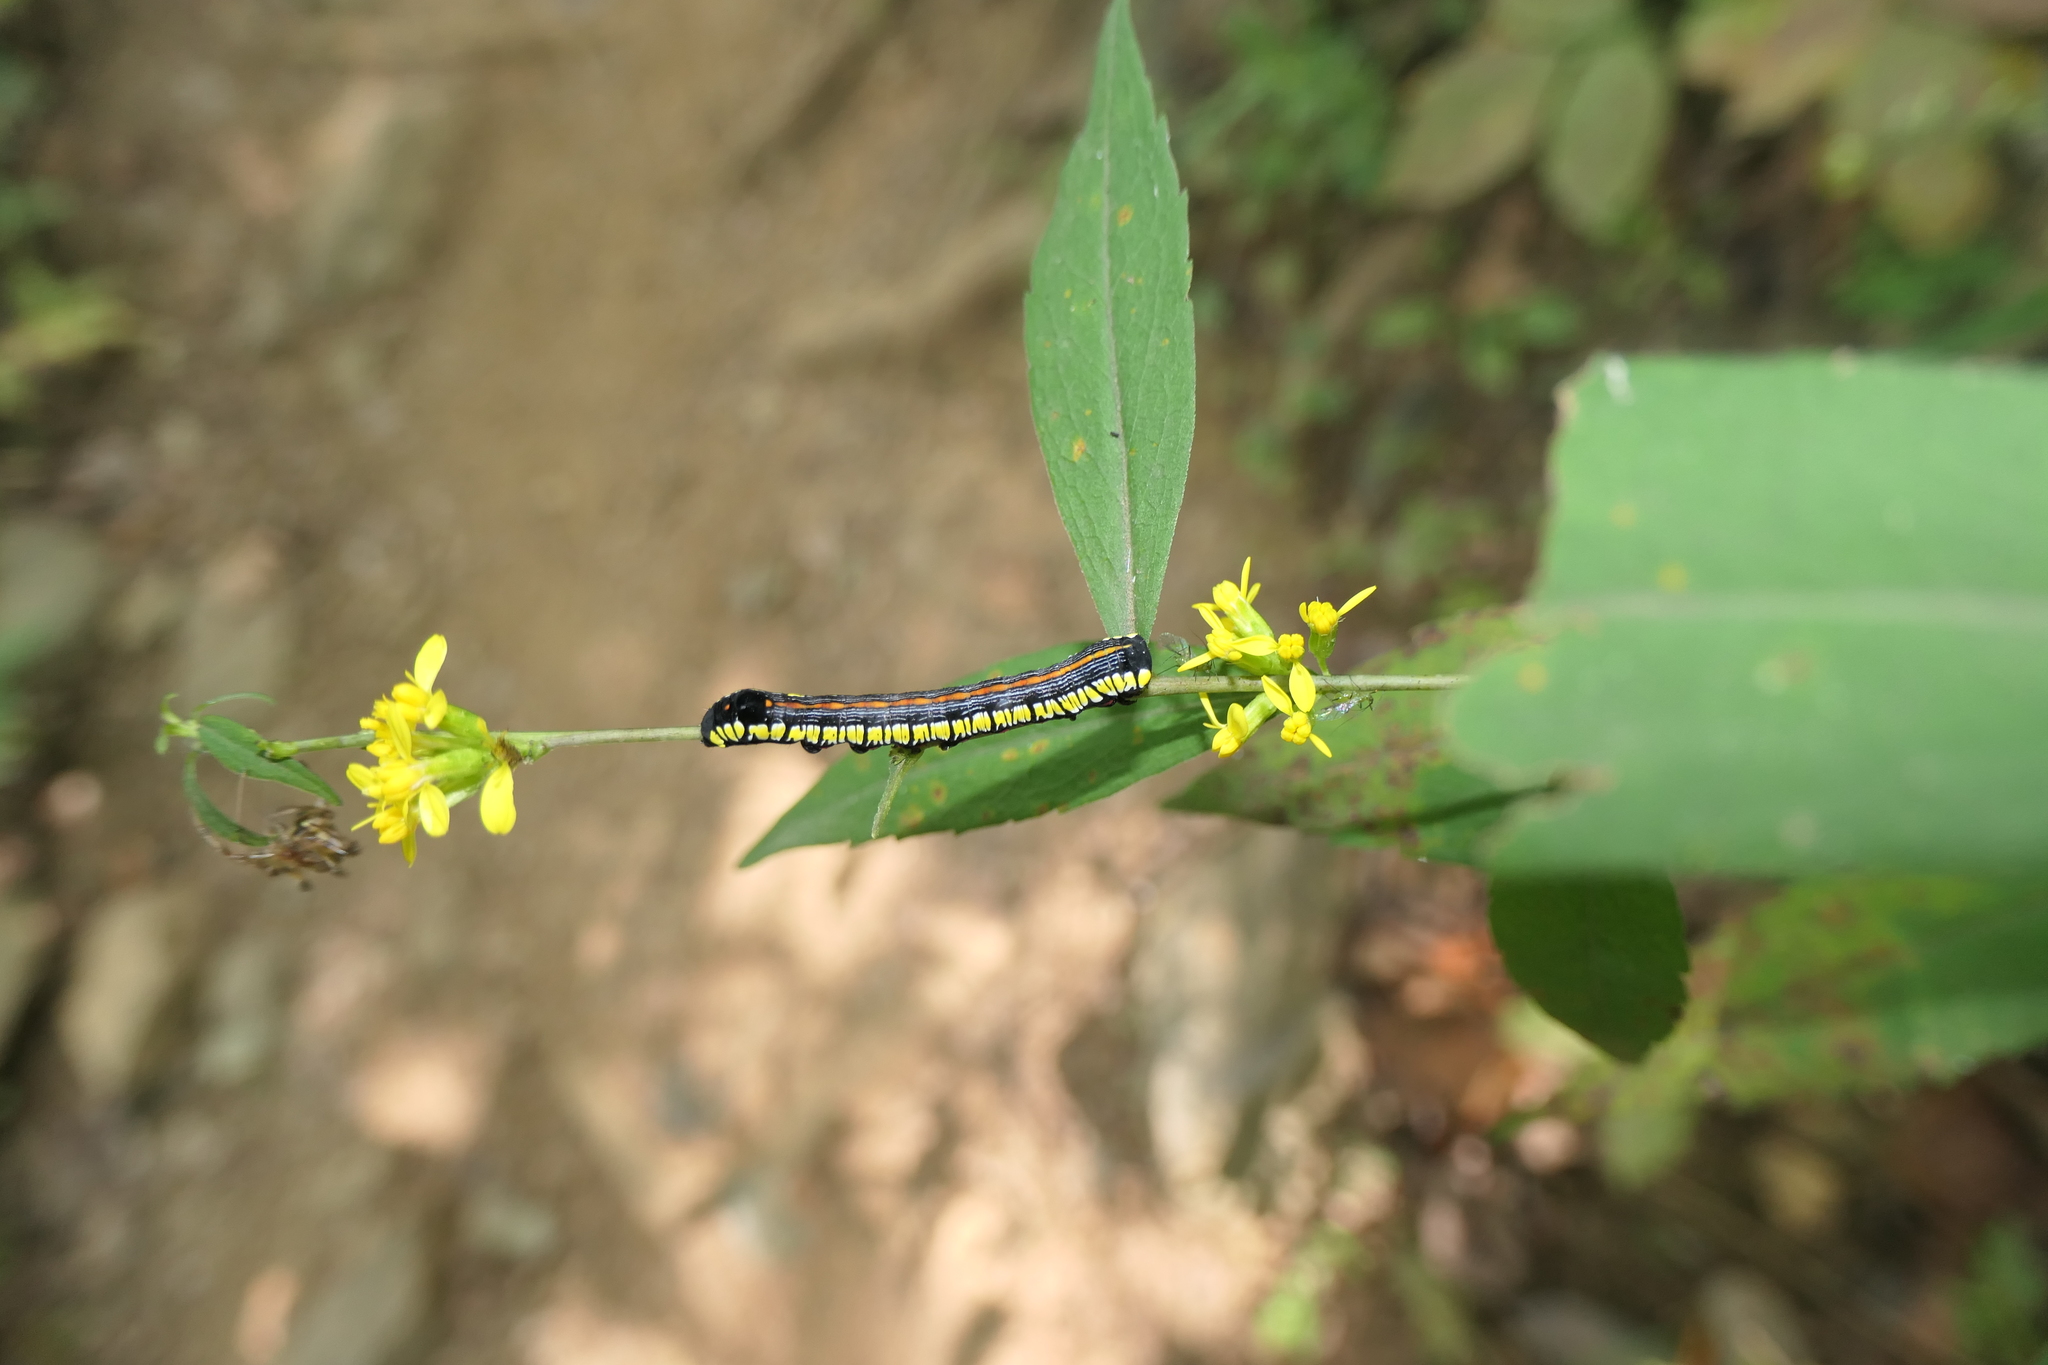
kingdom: Animalia
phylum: Arthropoda
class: Insecta
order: Lepidoptera
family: Noctuidae
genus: Cucullia
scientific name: Cucullia convexipennis
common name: Brown-hooded owlet
